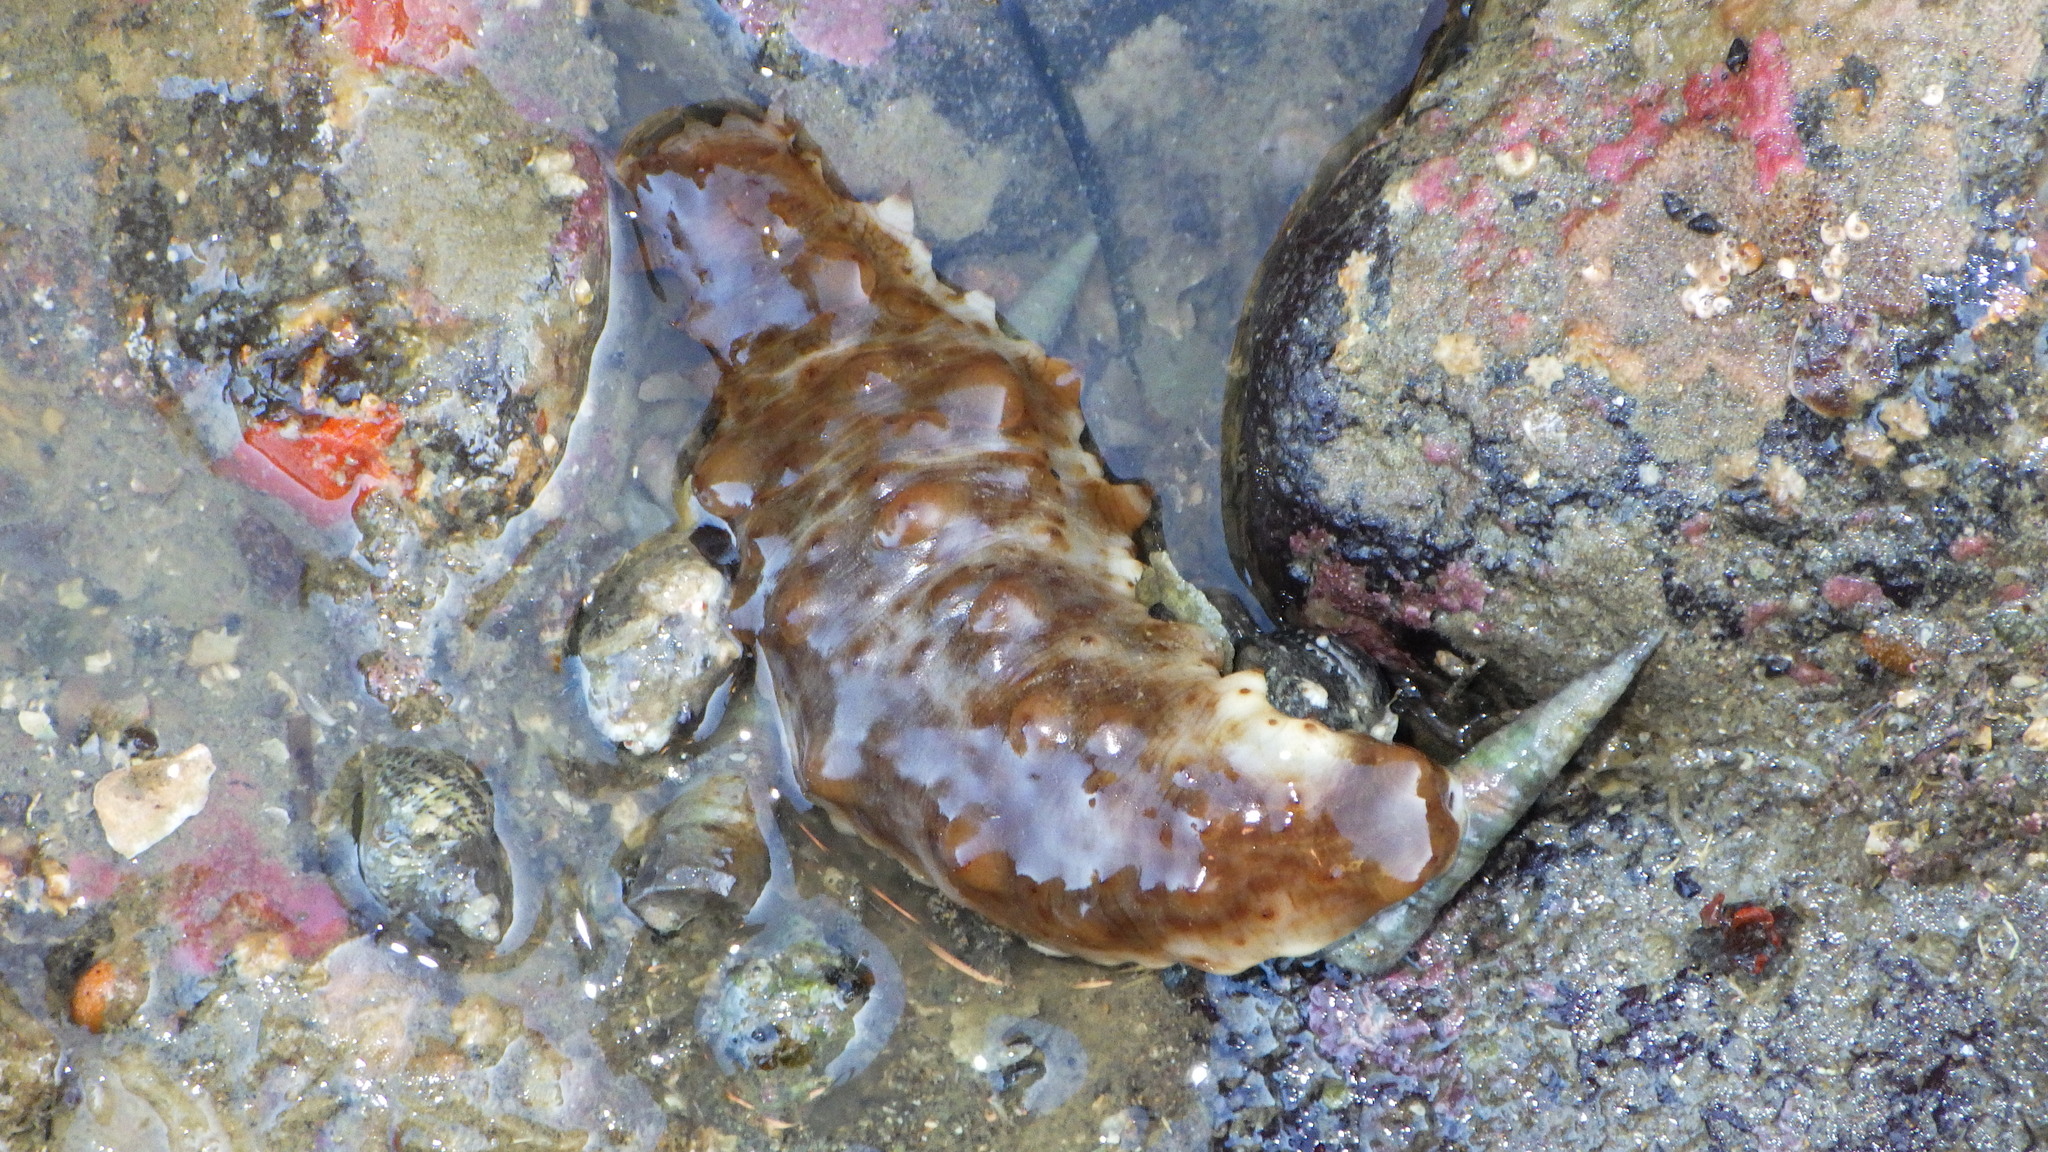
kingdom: Animalia
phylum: Echinodermata
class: Holothuroidea
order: Synallactida
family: Stichopodidae
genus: Australostichopus
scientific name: Australostichopus mollis
